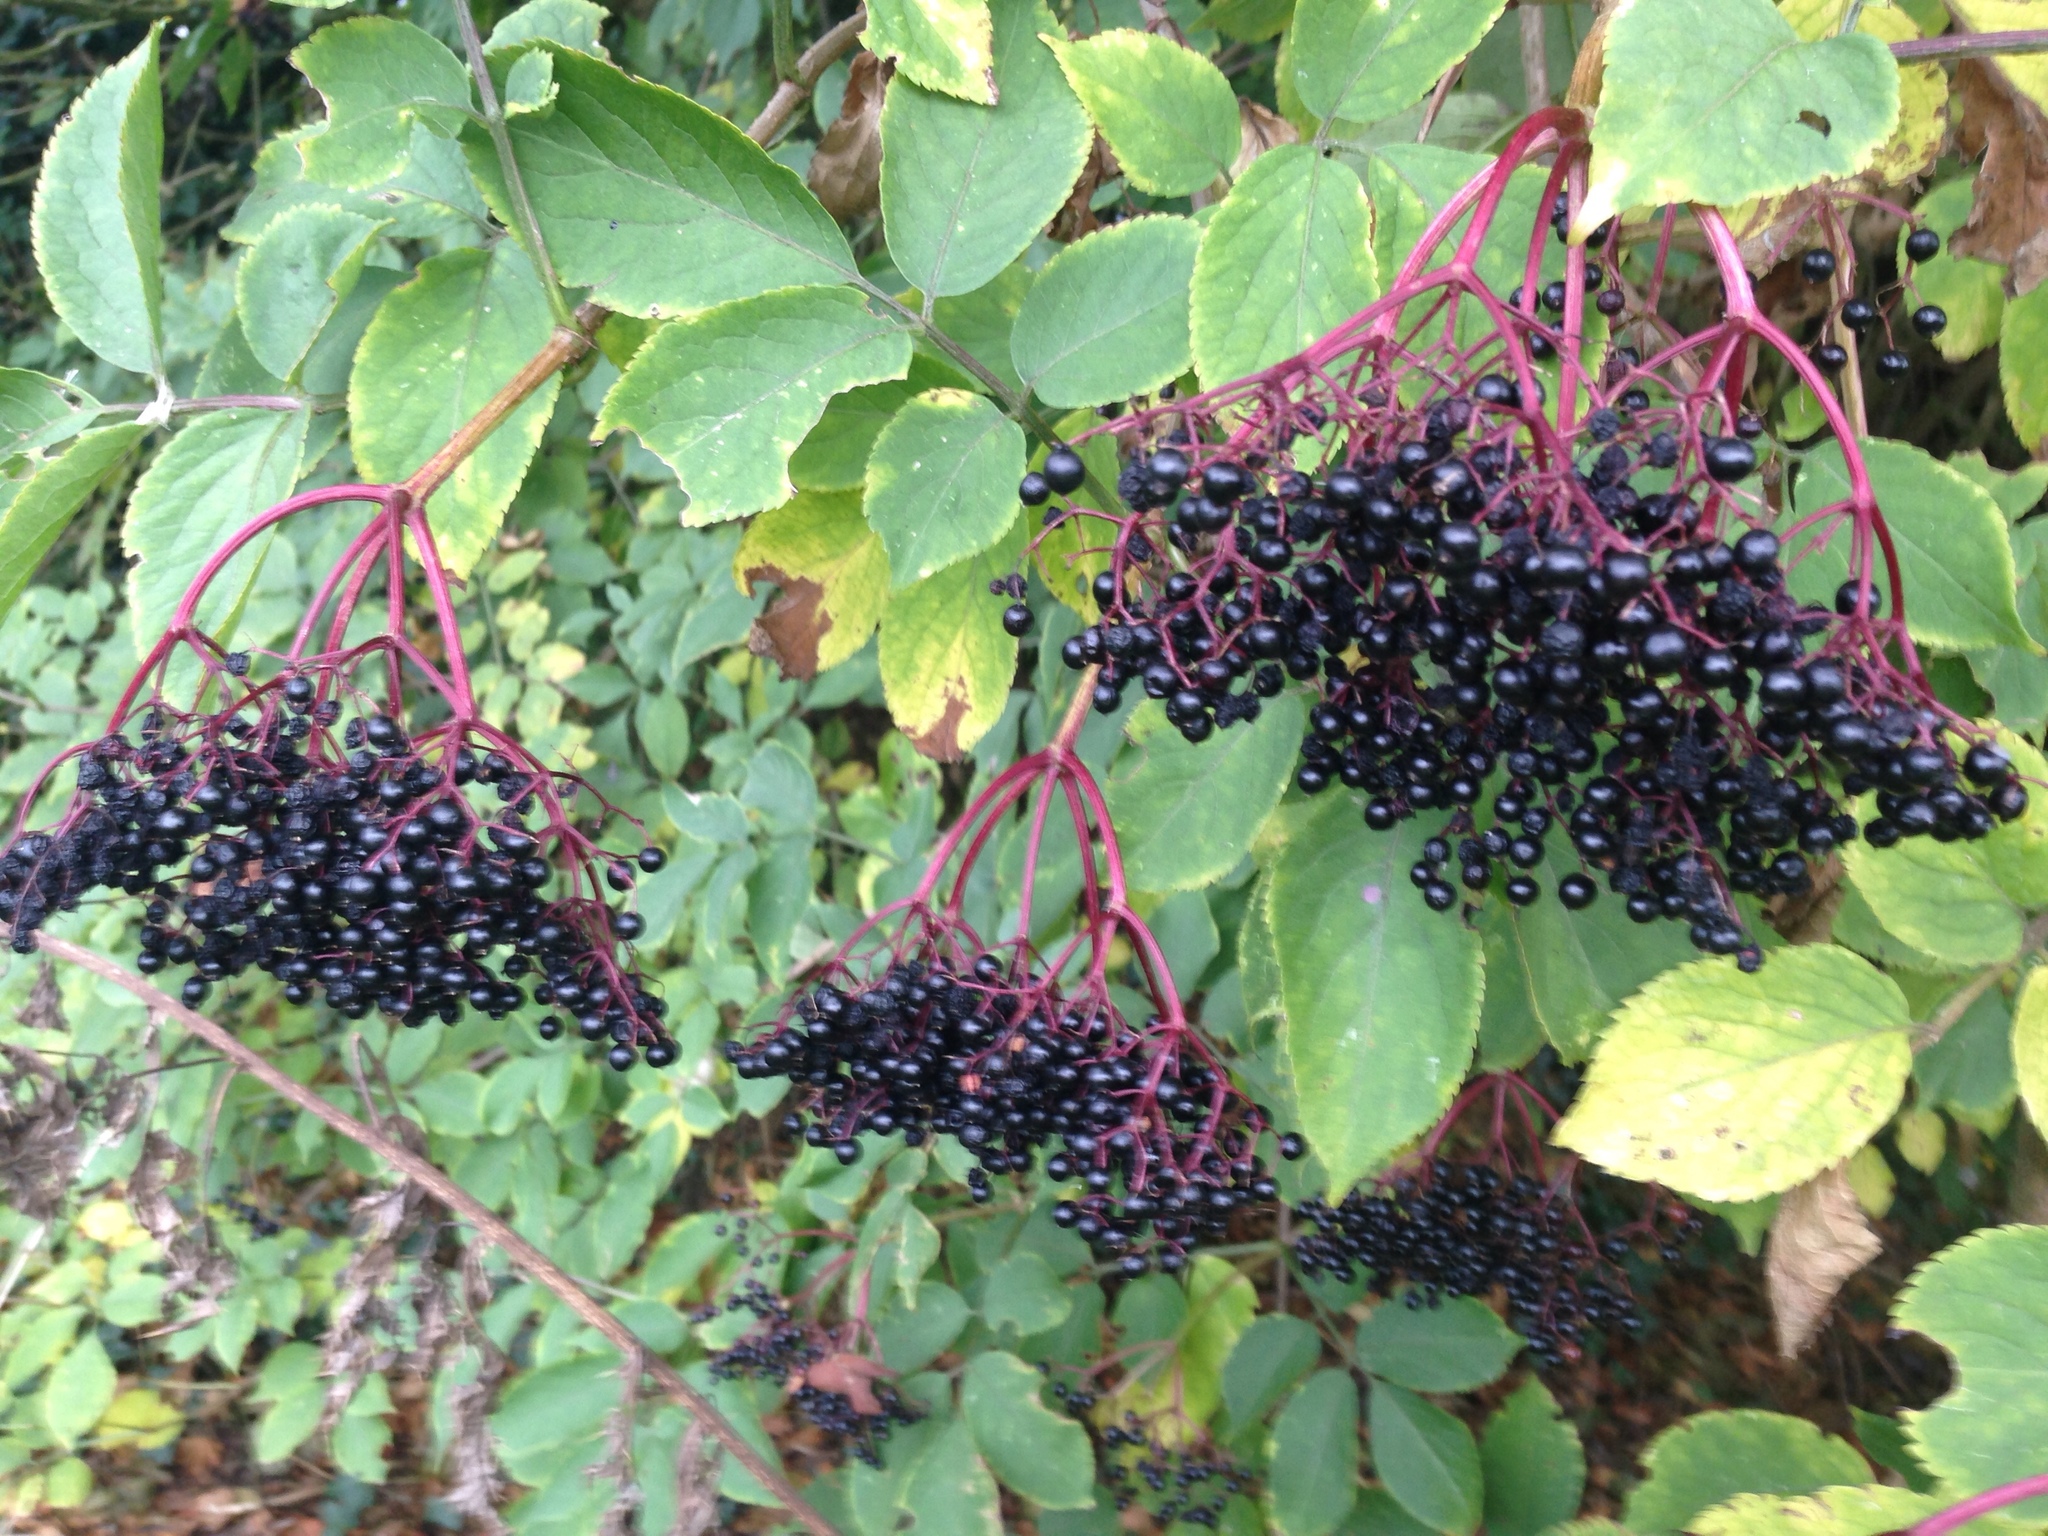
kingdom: Plantae
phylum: Tracheophyta
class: Magnoliopsida
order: Dipsacales
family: Viburnaceae
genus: Sambucus
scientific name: Sambucus nigra
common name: Elder
